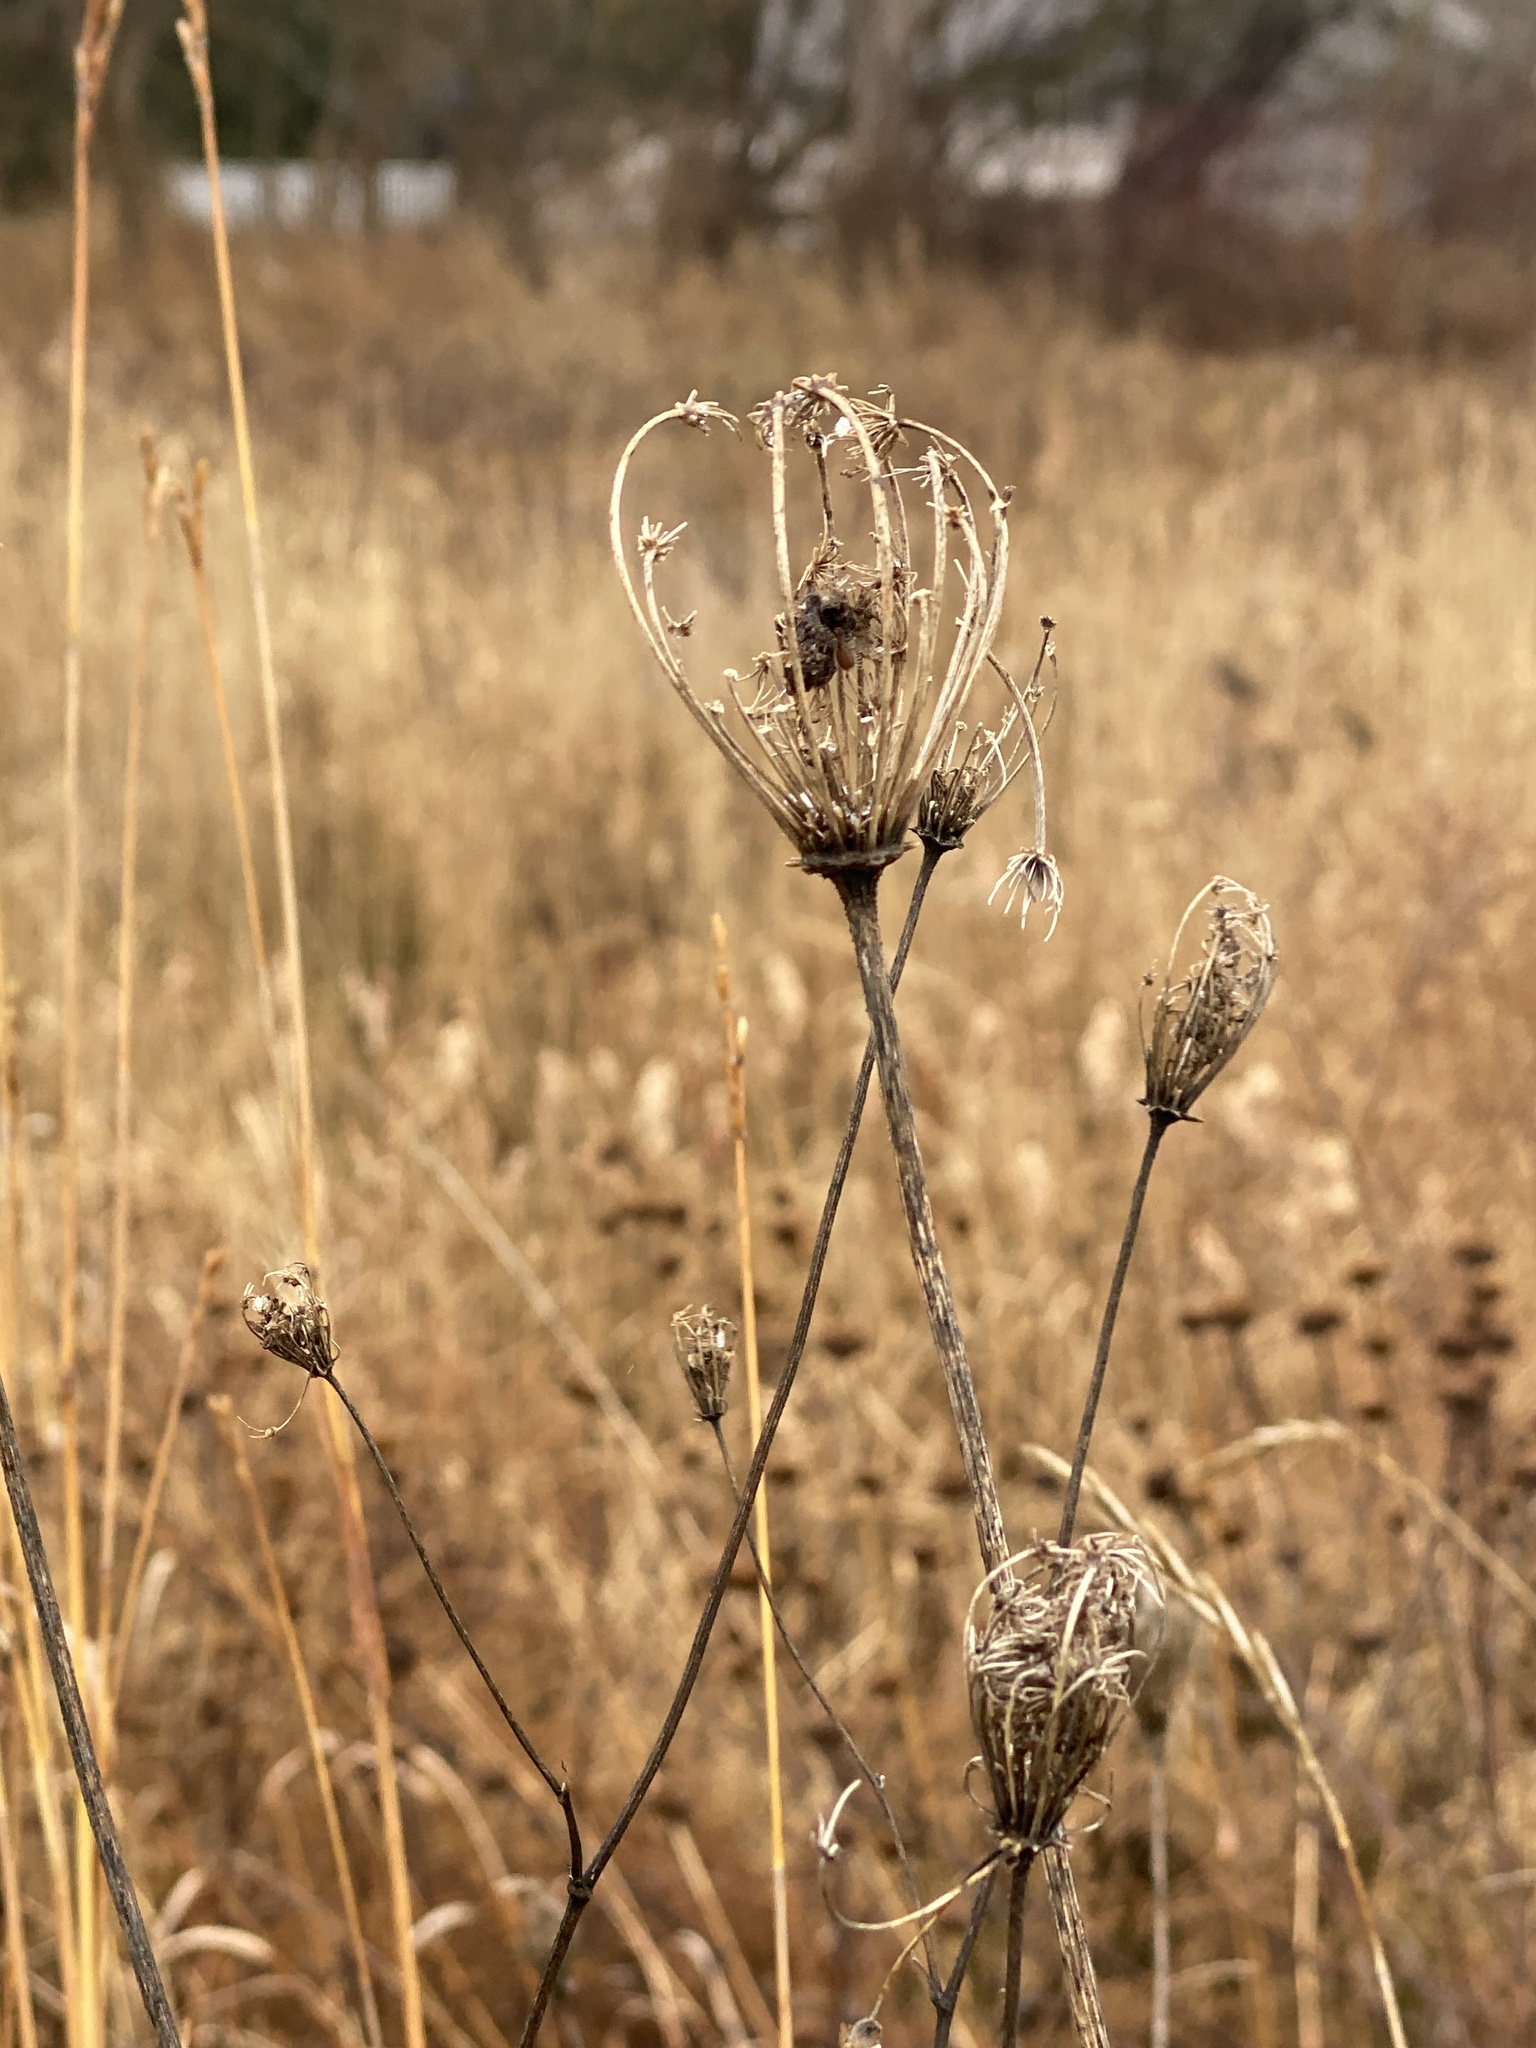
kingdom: Plantae
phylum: Tracheophyta
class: Magnoliopsida
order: Apiales
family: Apiaceae
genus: Daucus
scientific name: Daucus carota
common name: Wild carrot
